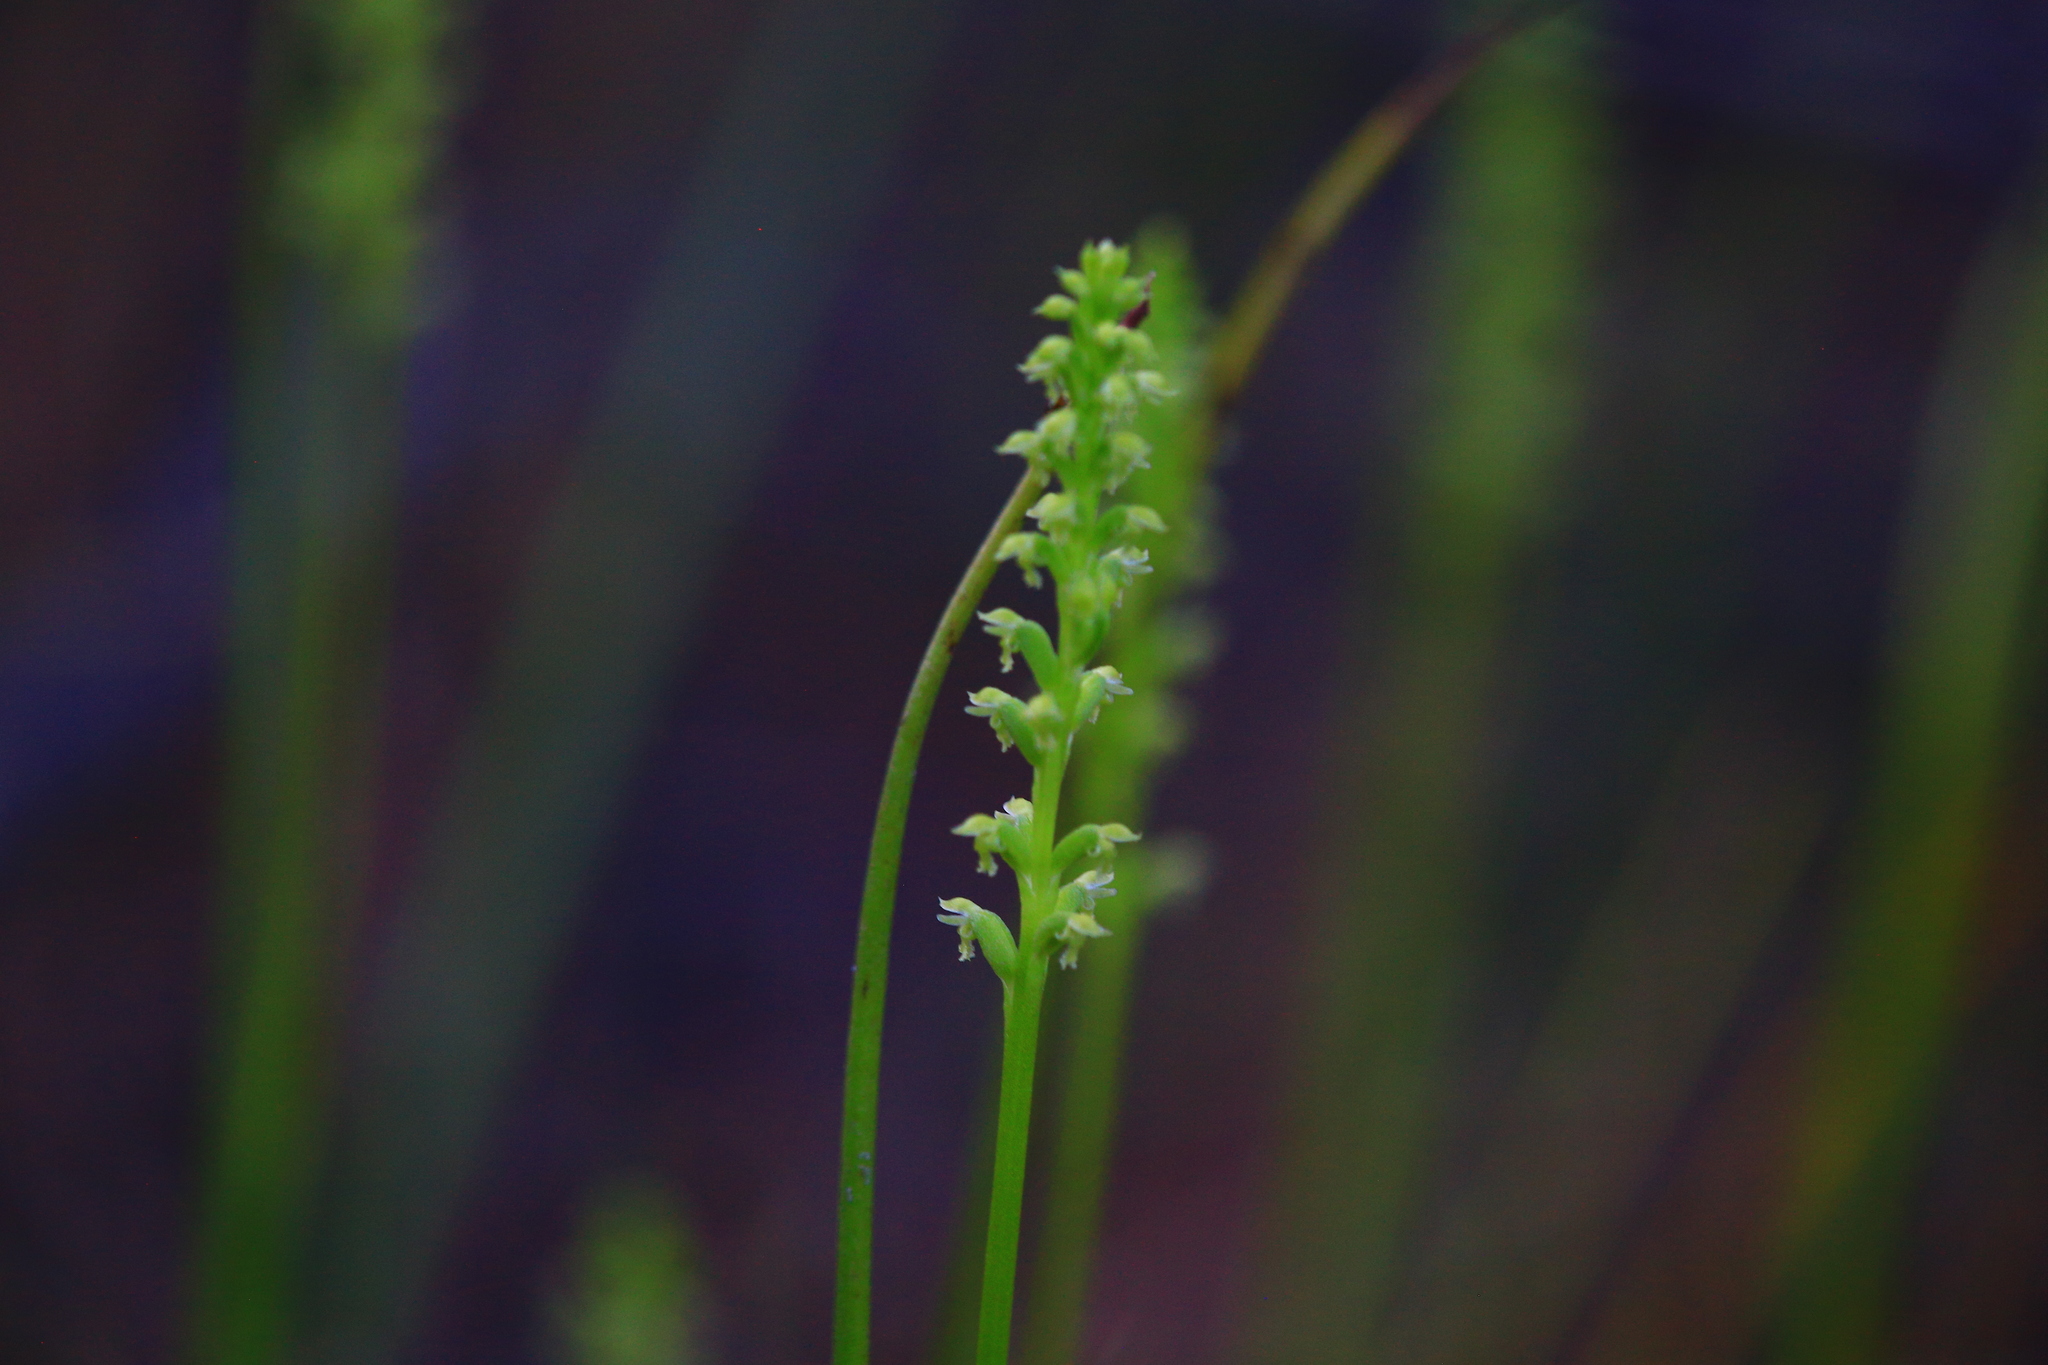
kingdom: Plantae
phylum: Tracheophyta
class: Liliopsida
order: Asparagales
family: Orchidaceae
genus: Microtis
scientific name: Microtis media
